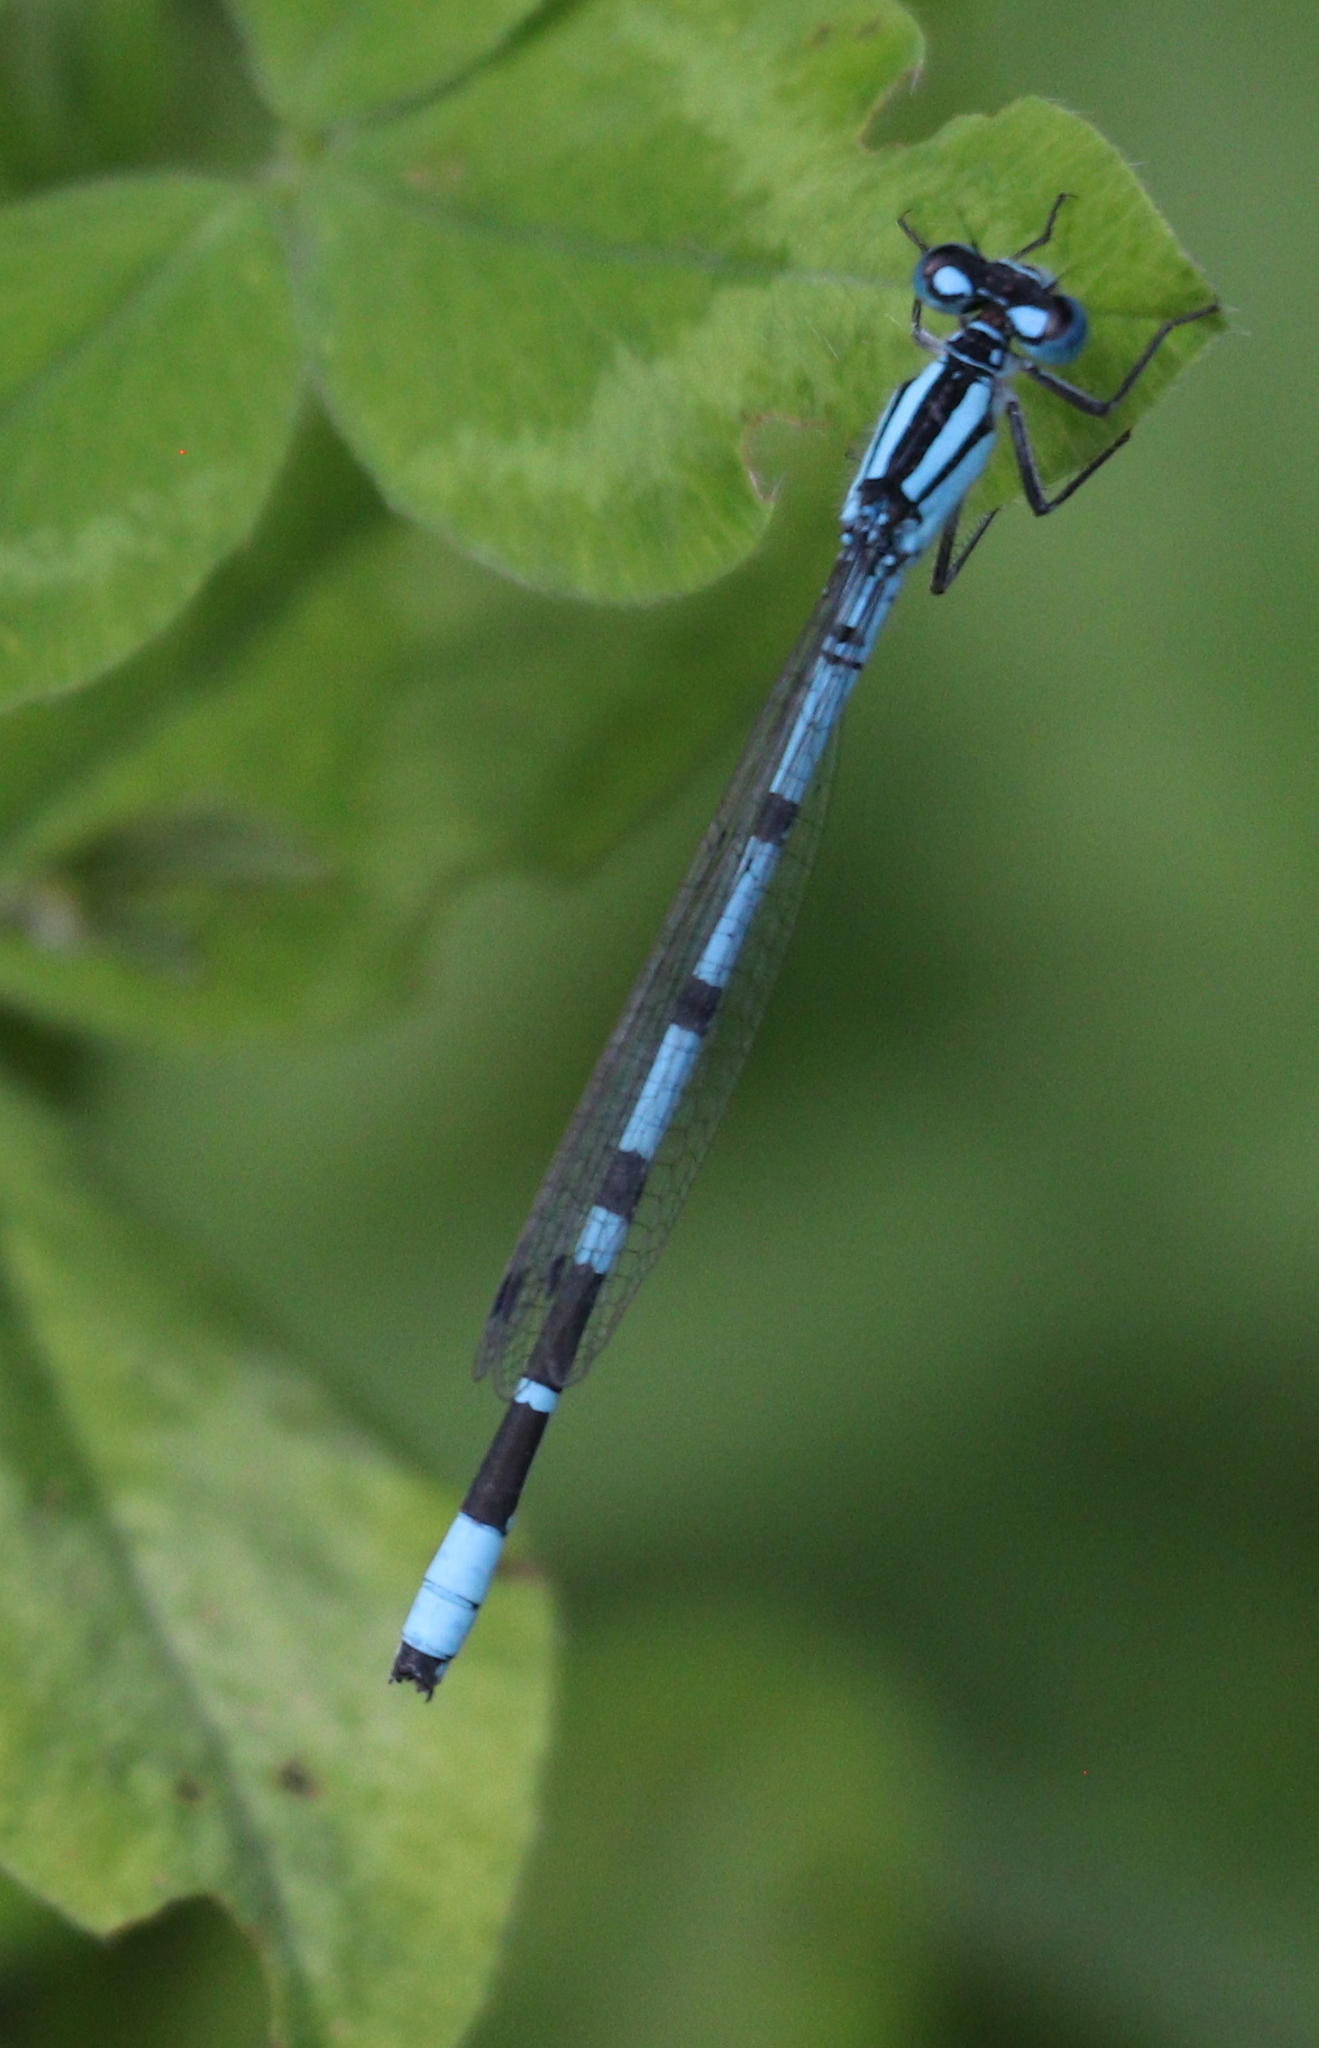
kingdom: Animalia
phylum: Arthropoda
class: Insecta
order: Odonata
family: Coenagrionidae
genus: Enallagma
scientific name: Enallagma cyathigerum
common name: Common blue damselfly
